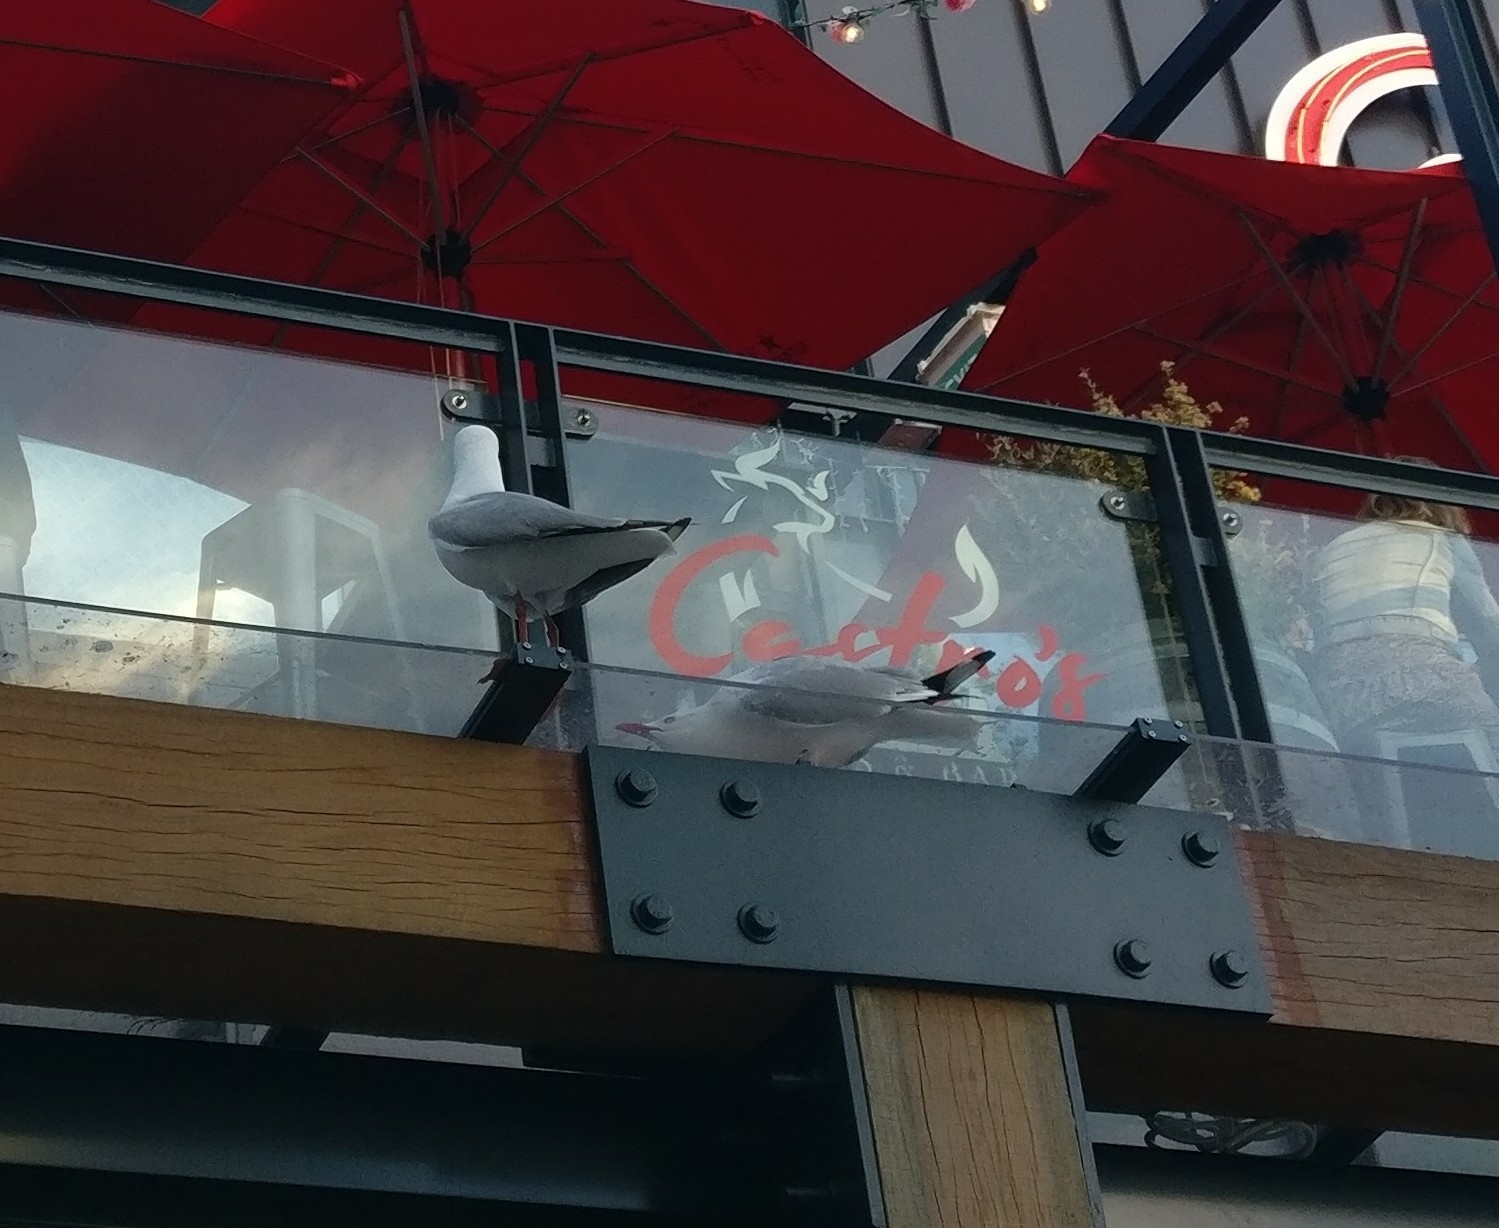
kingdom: Animalia
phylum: Chordata
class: Aves
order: Charadriiformes
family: Laridae
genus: Chroicocephalus
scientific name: Chroicocephalus novaehollandiae
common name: Silver gull
